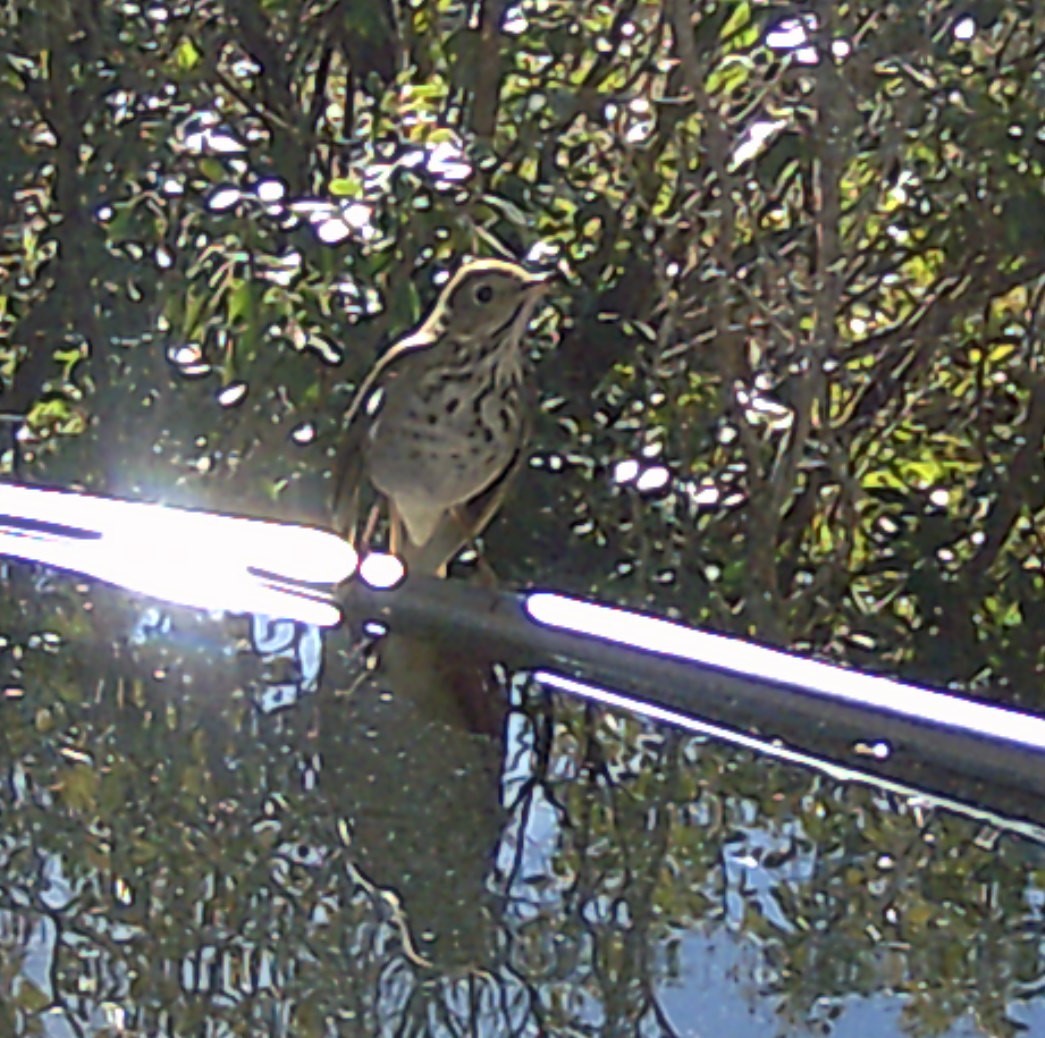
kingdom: Animalia
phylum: Chordata
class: Aves
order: Passeriformes
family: Turdidae
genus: Catharus
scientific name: Catharus guttatus
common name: Hermit thrush
